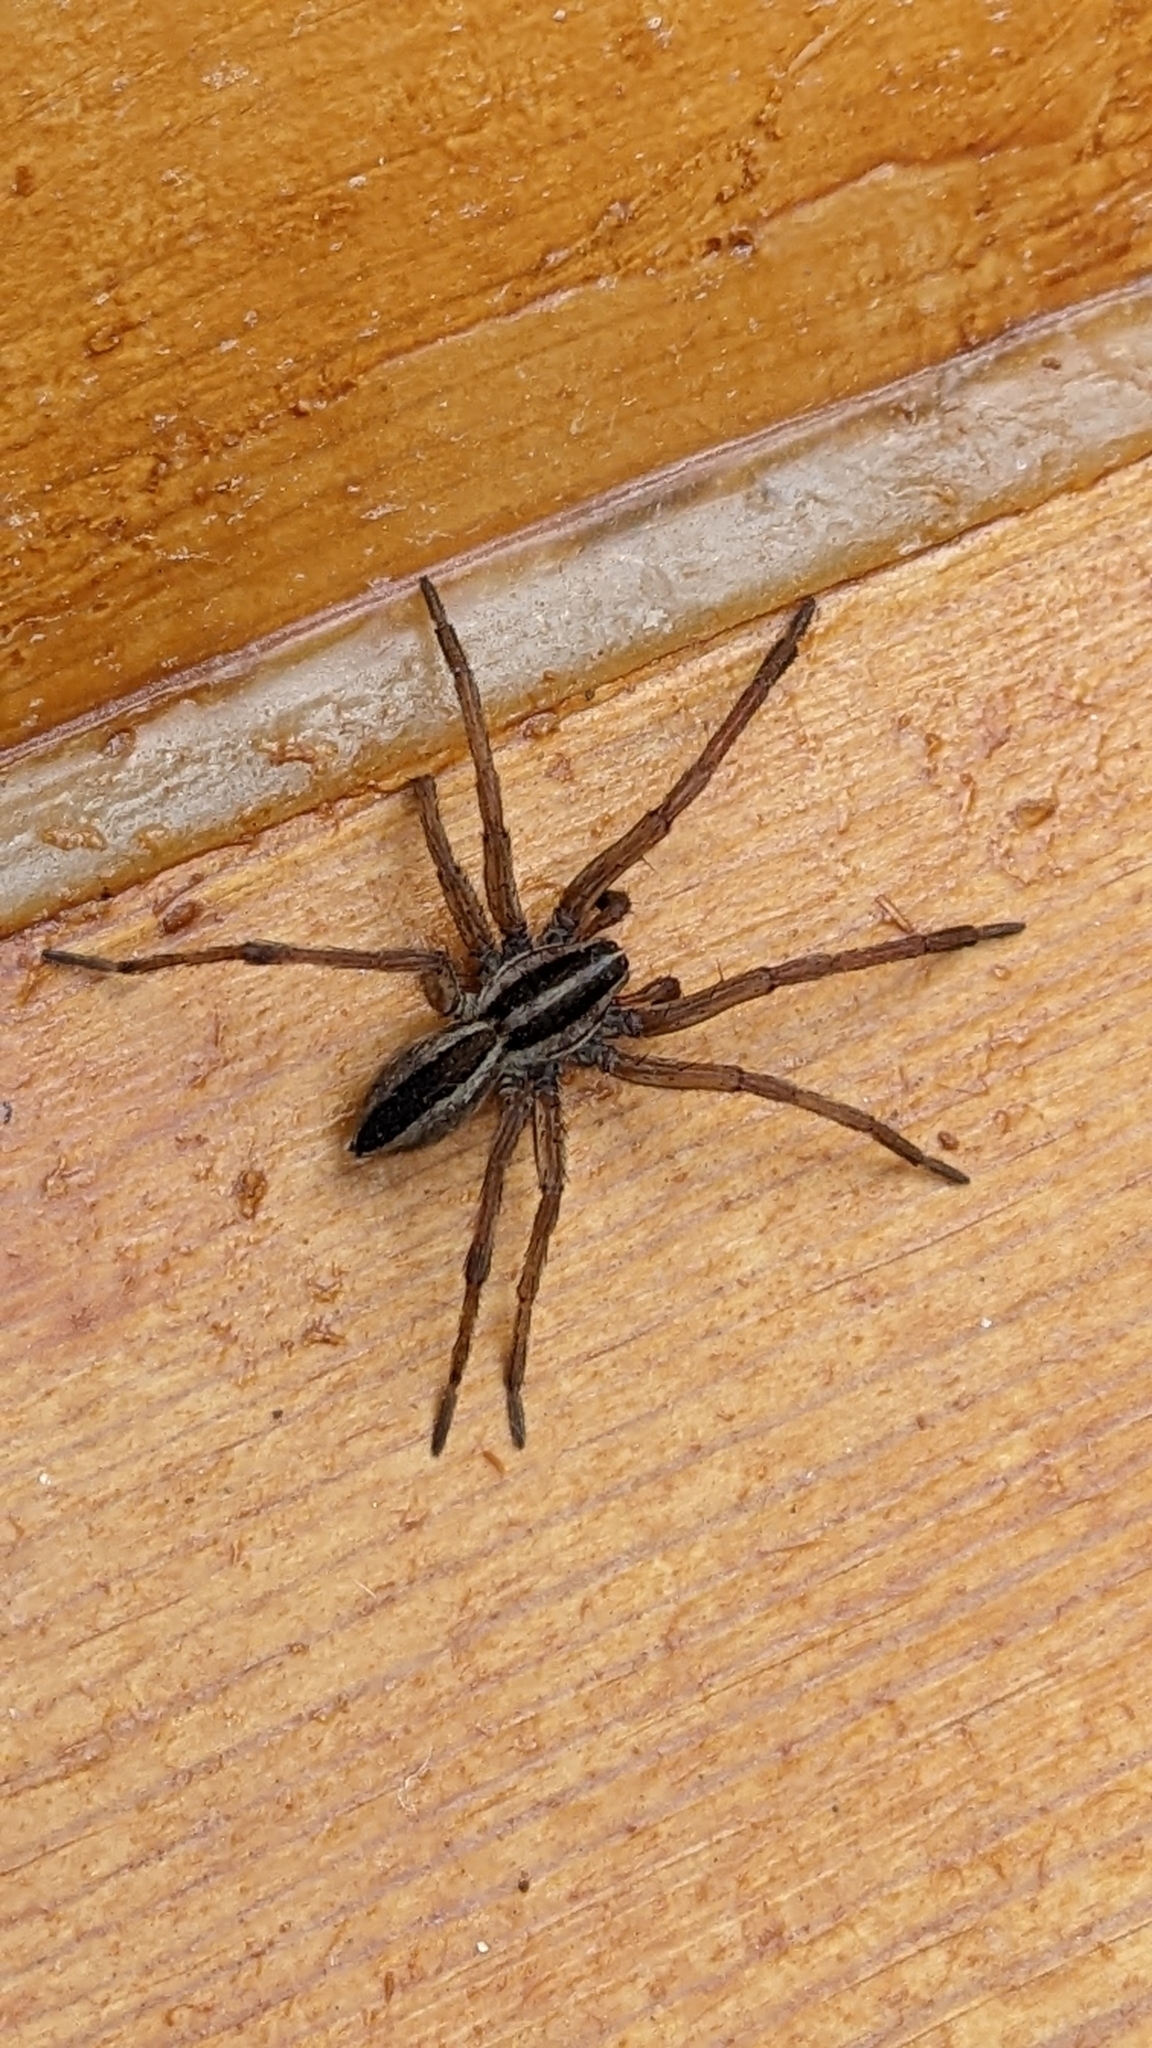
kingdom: Animalia
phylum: Arthropoda
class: Arachnida
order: Araneae
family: Lycosidae
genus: Rabidosa
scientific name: Rabidosa punctulata
